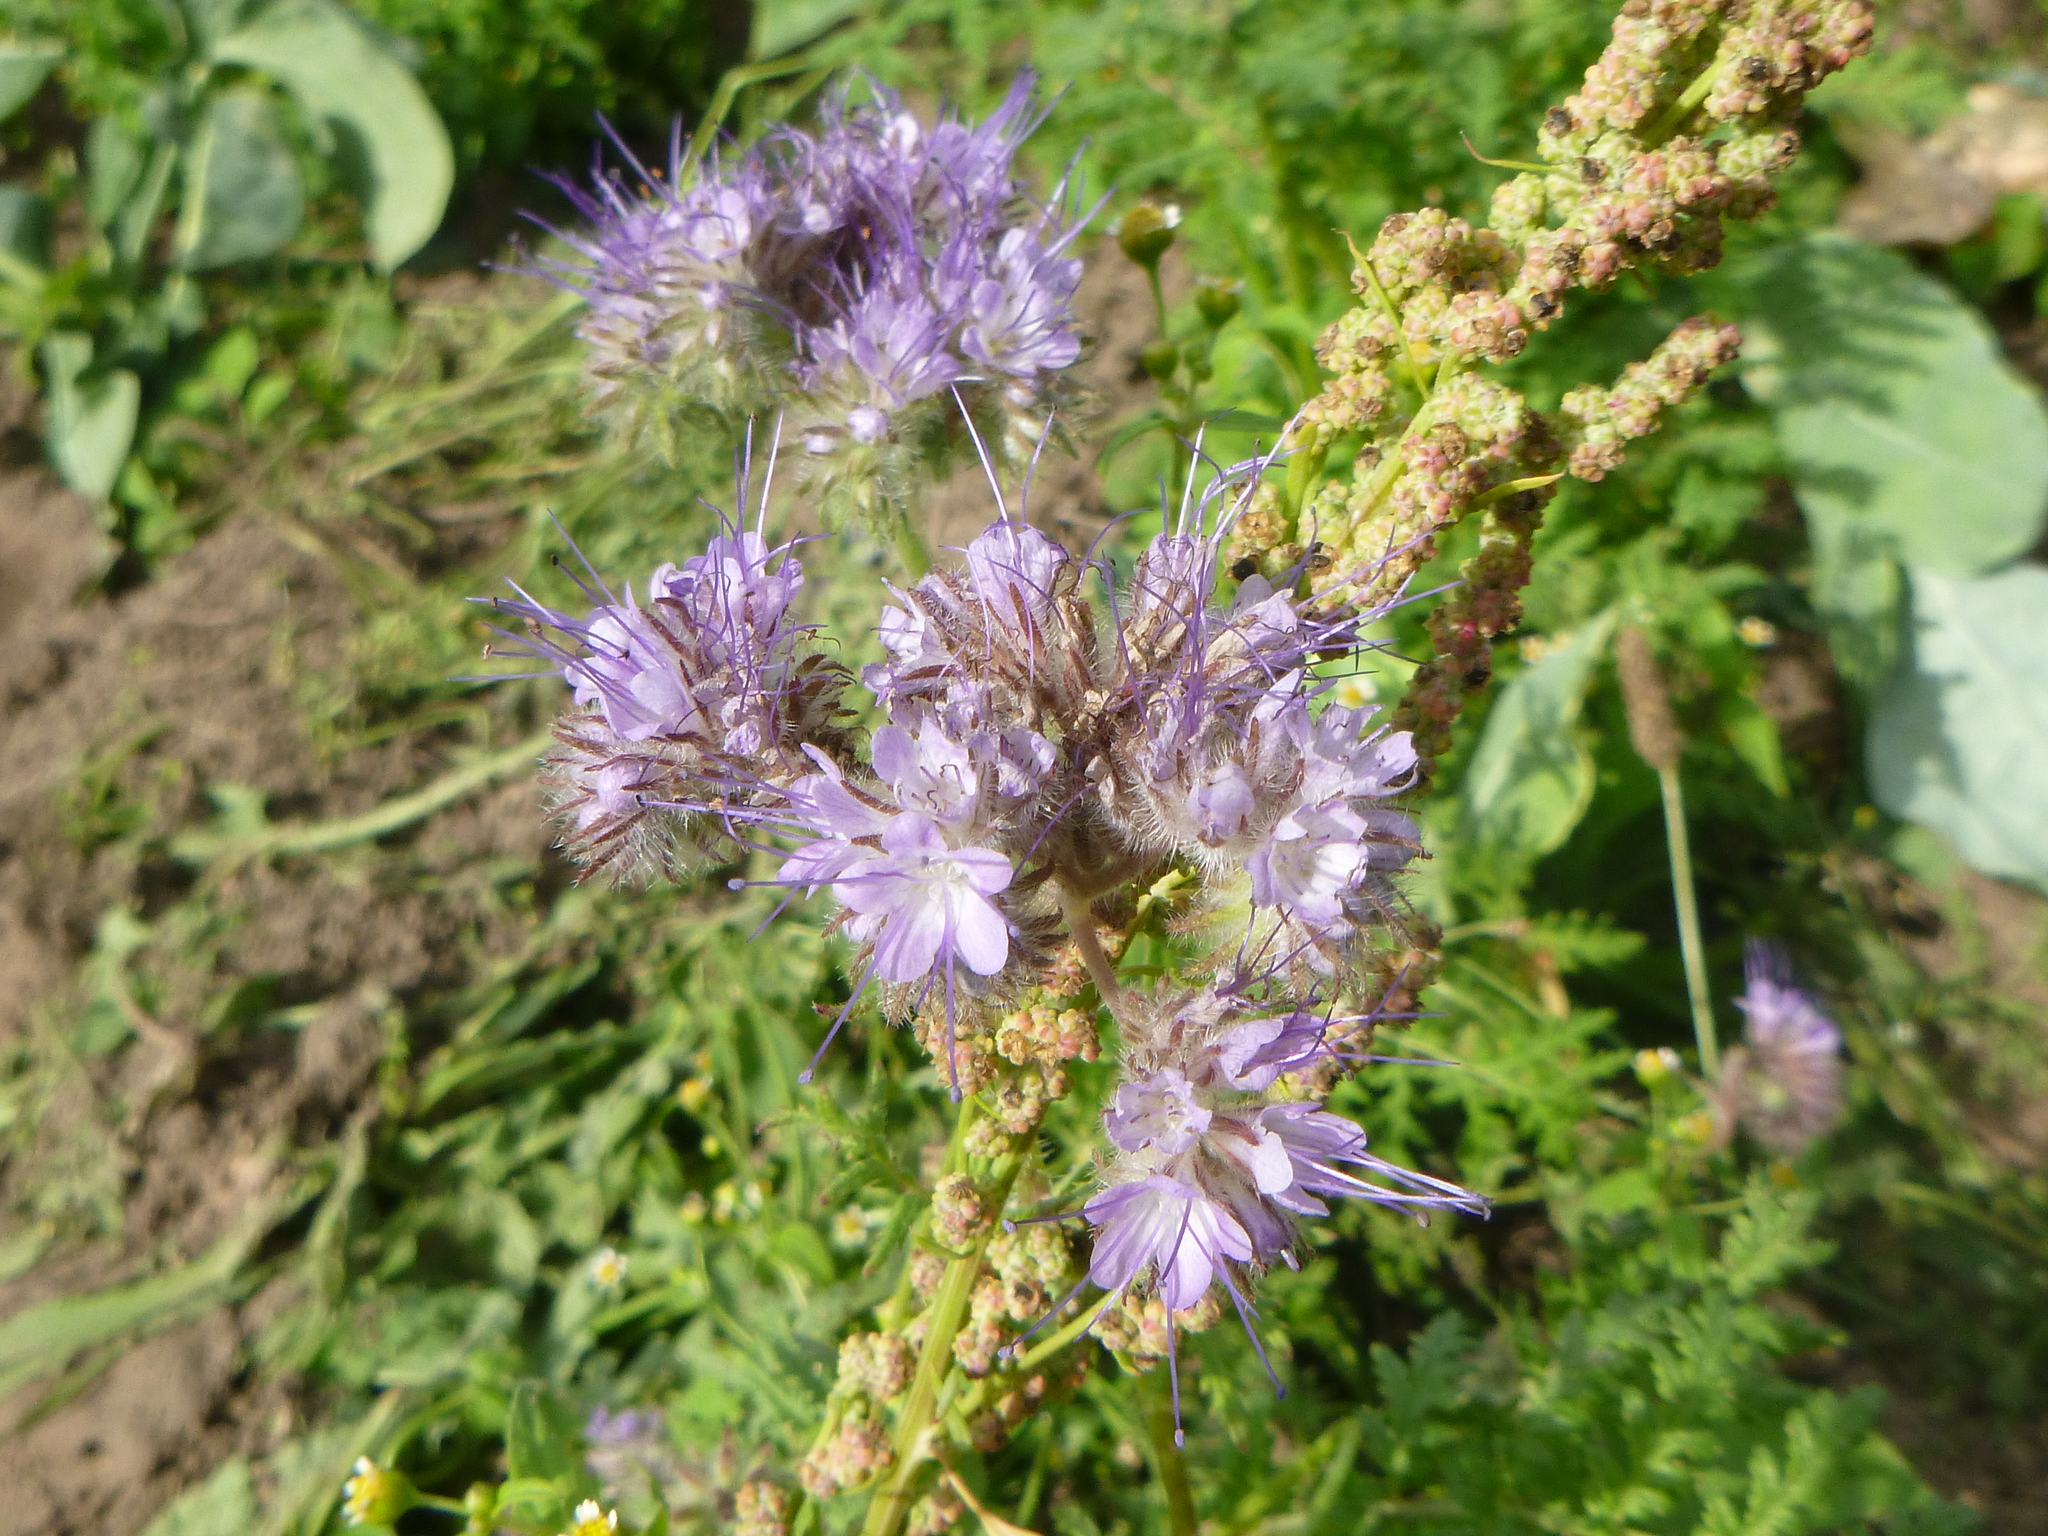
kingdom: Plantae
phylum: Tracheophyta
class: Magnoliopsida
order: Boraginales
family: Hydrophyllaceae
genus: Phacelia
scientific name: Phacelia tanacetifolia
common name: Phacelia
